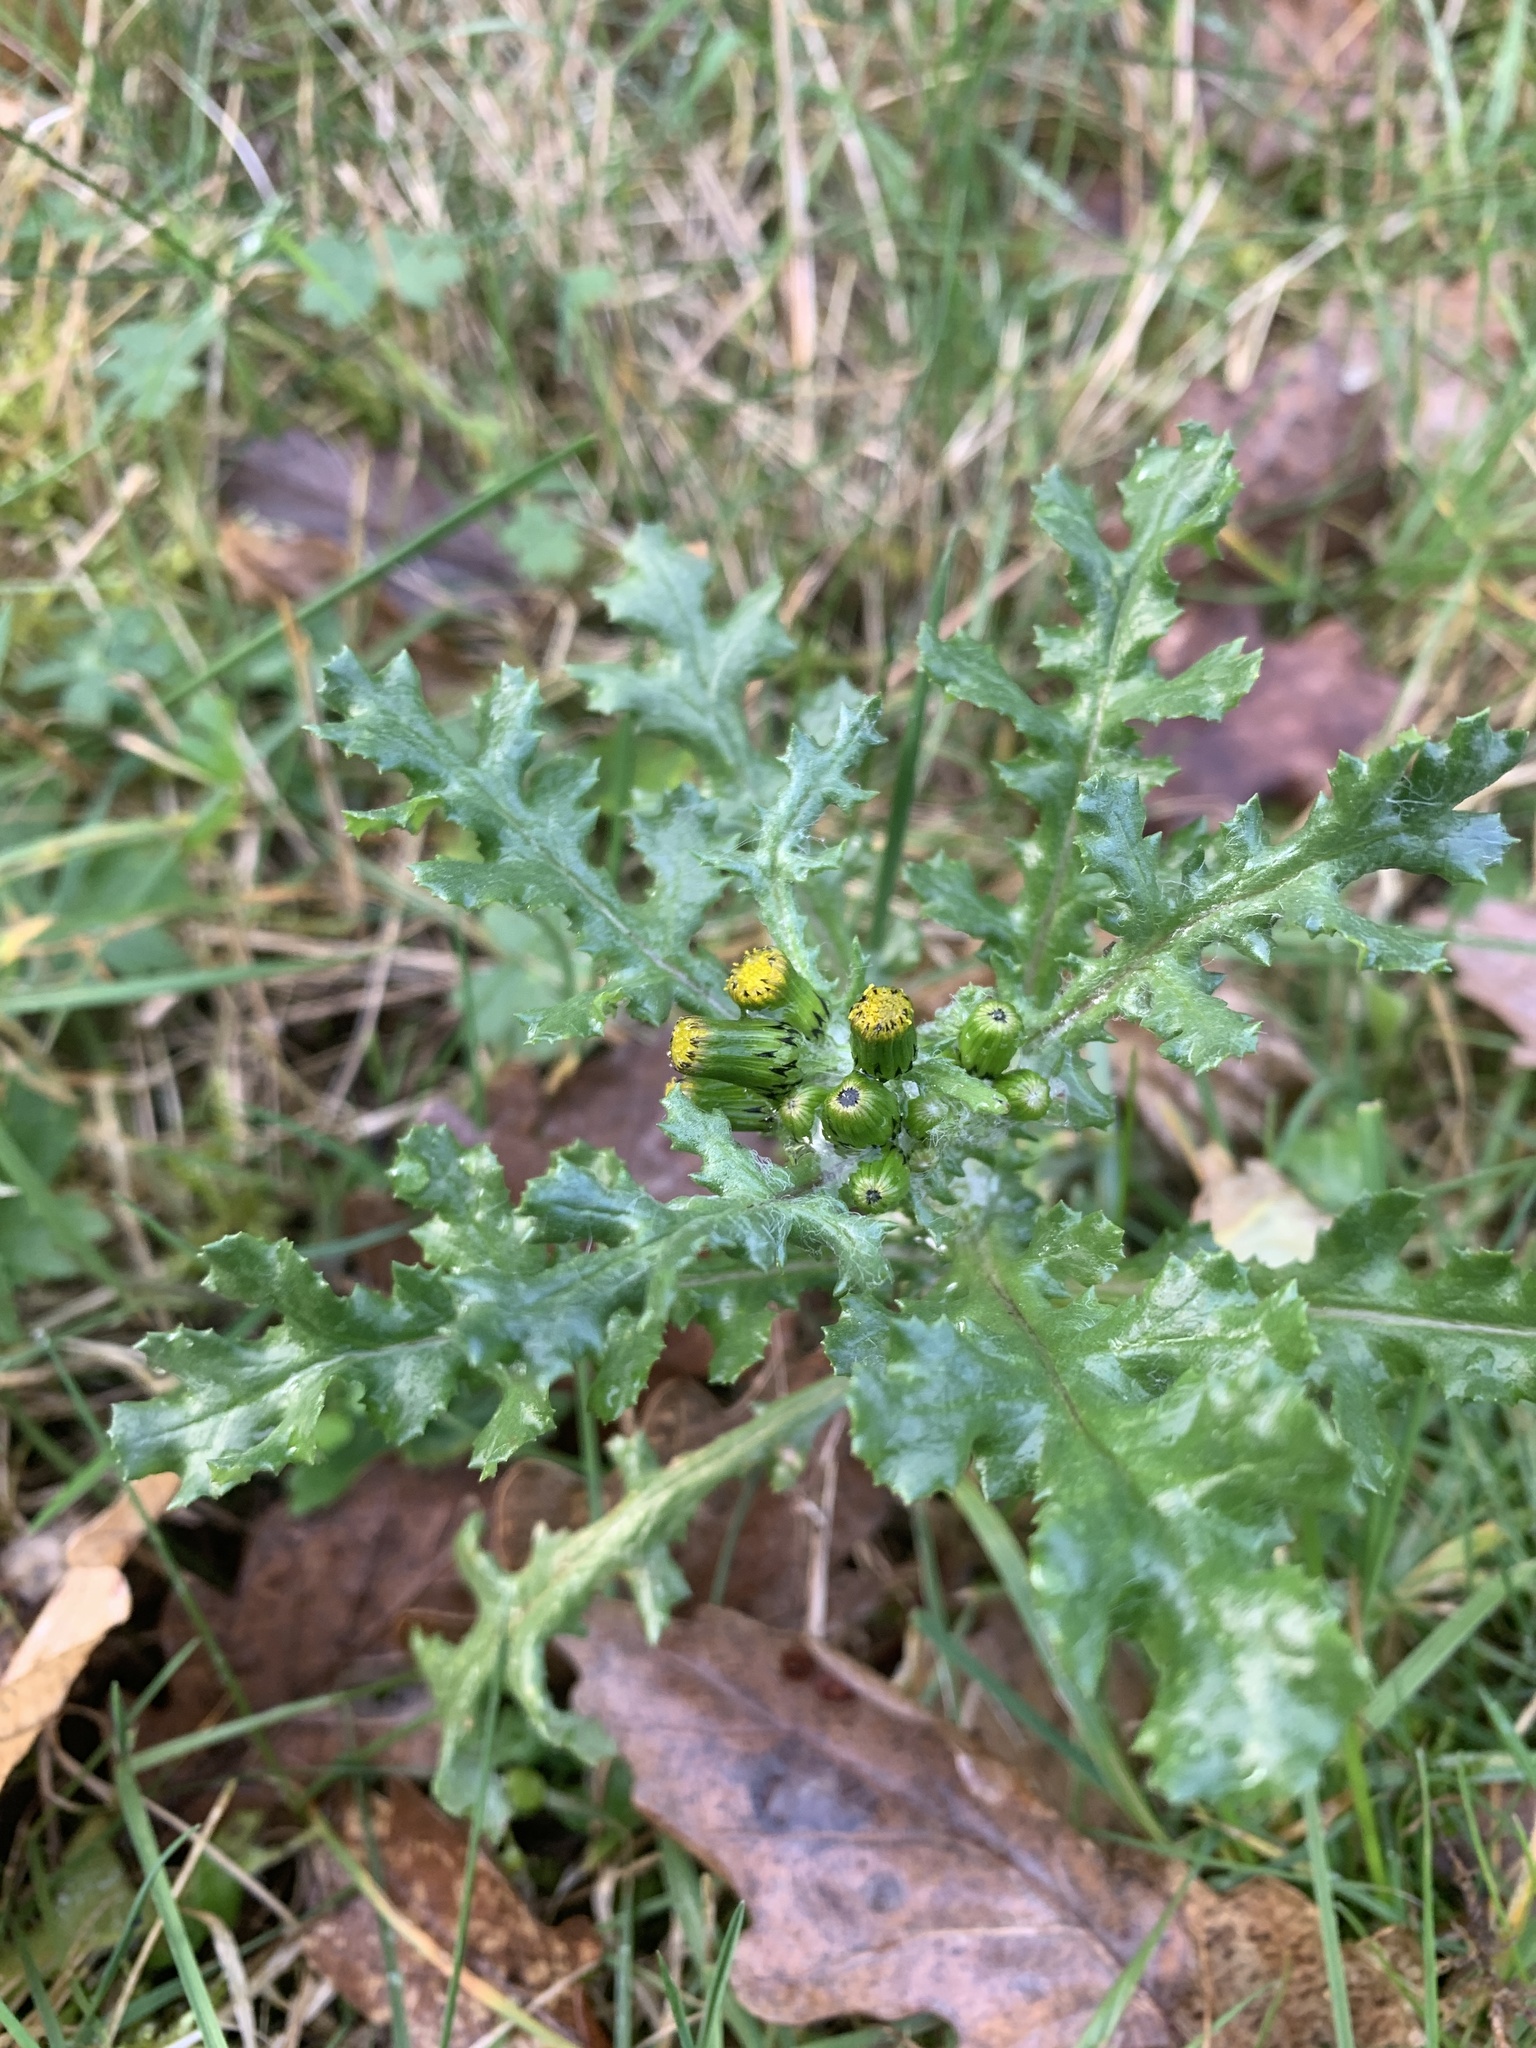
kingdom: Plantae
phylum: Tracheophyta
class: Magnoliopsida
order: Asterales
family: Asteraceae
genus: Senecio
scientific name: Senecio vulgaris
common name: Old-man-in-the-spring
